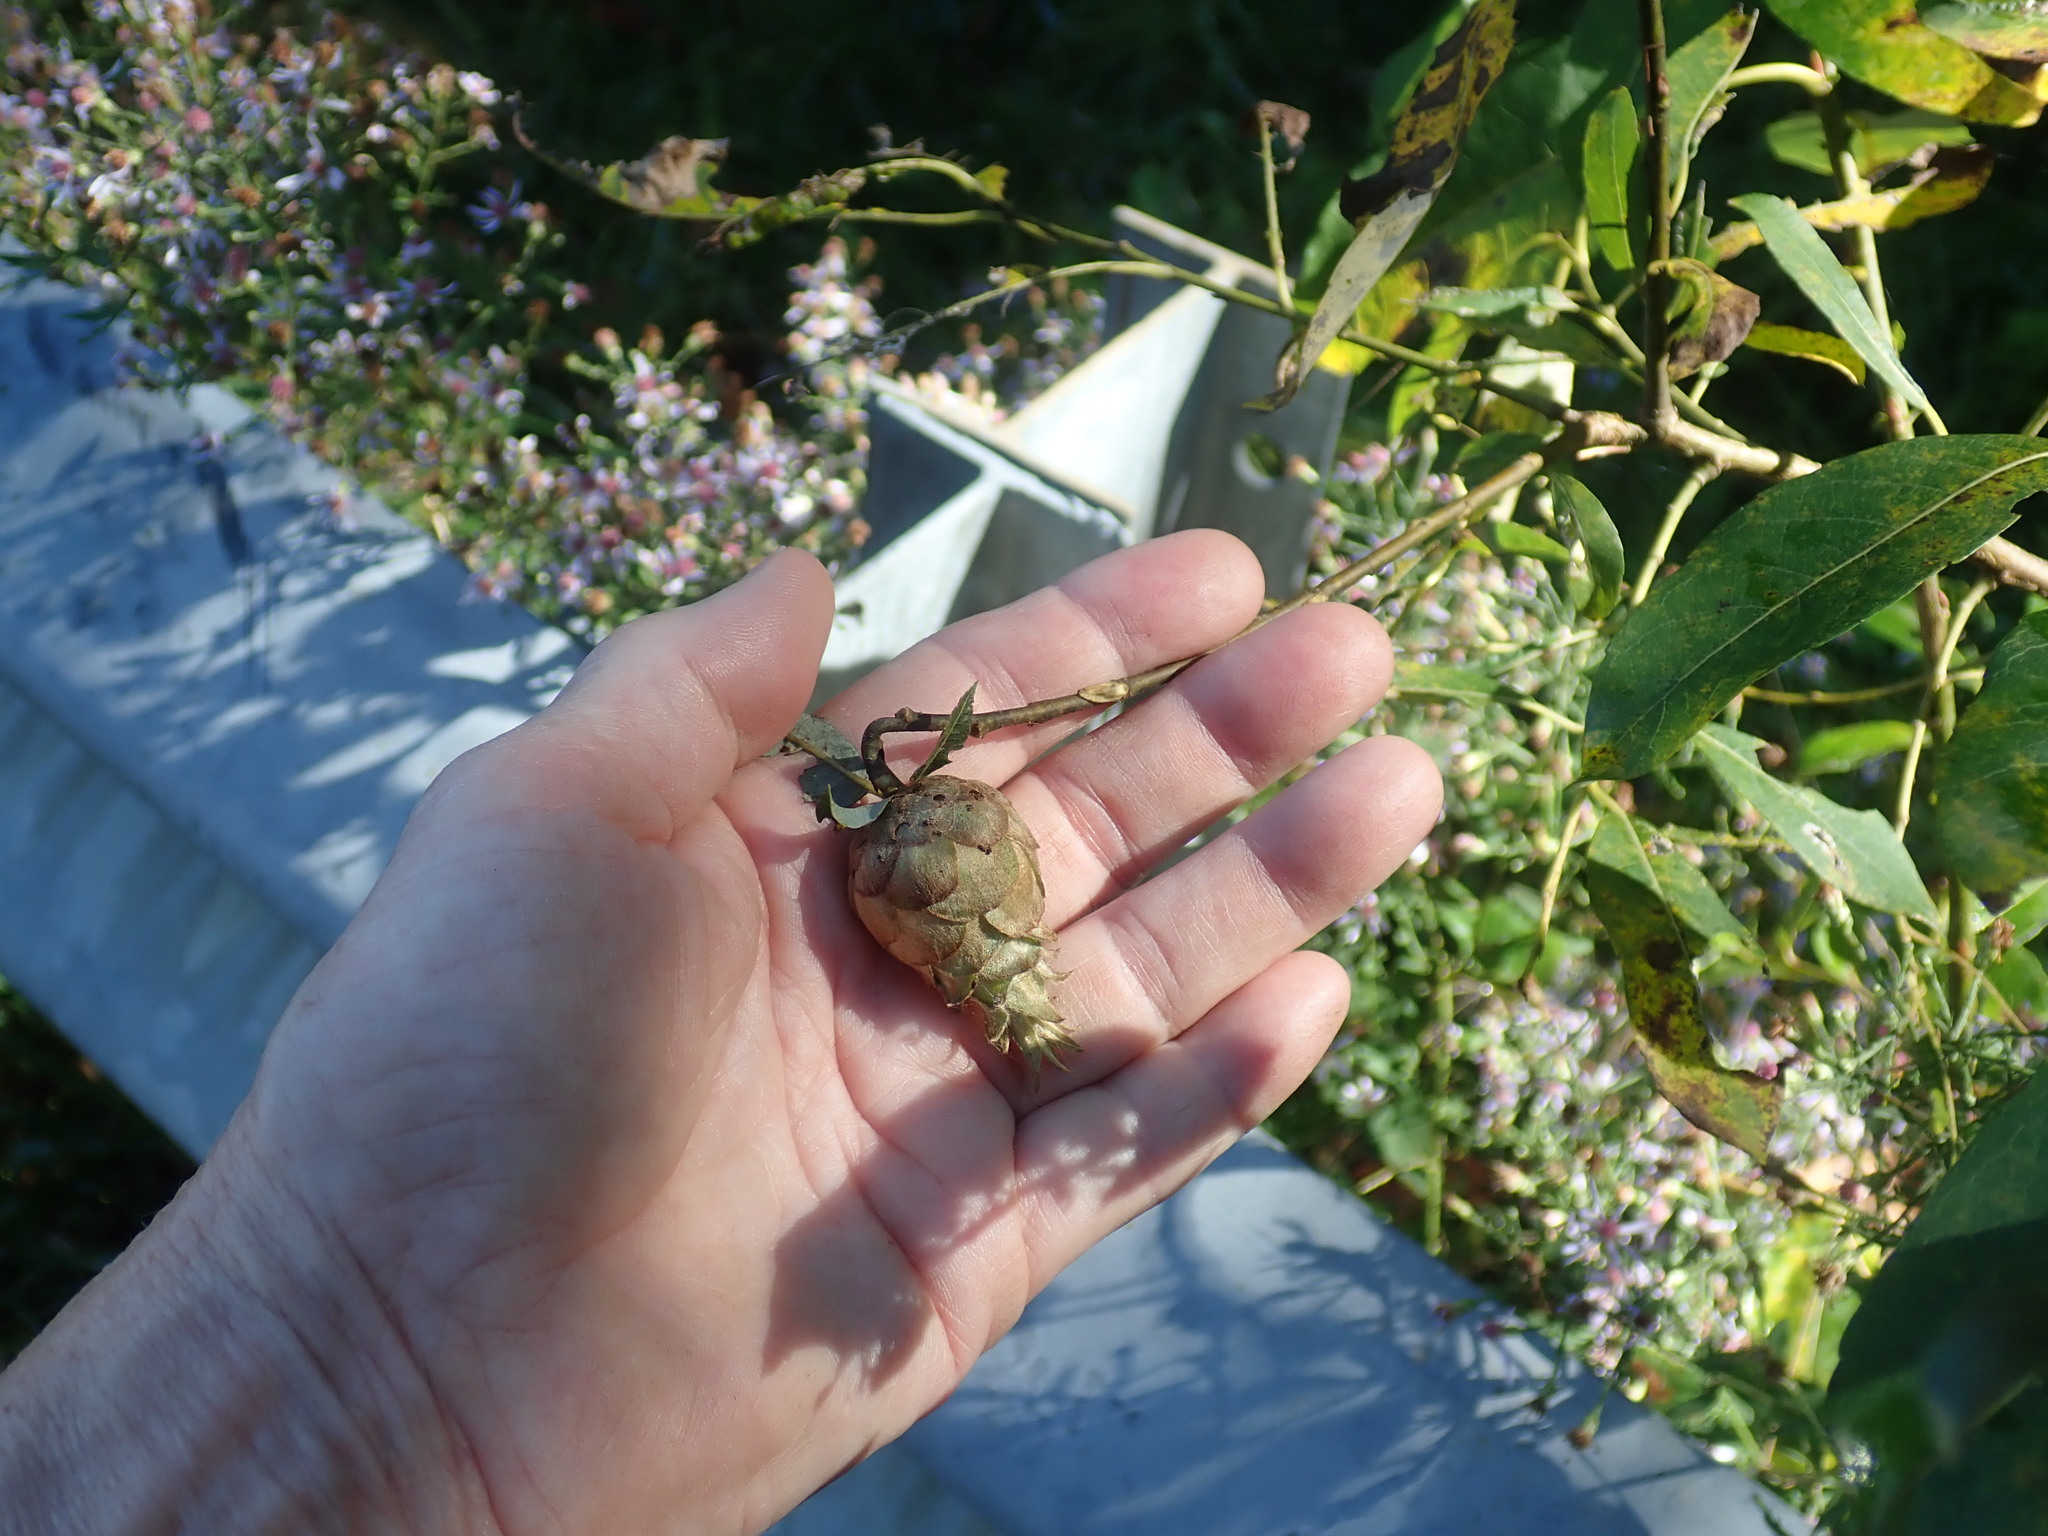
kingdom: Animalia
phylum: Arthropoda
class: Insecta
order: Diptera
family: Cecidomyiidae
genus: Rabdophaga
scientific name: Rabdophaga strobiloides
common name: Willow pinecone gall midge
